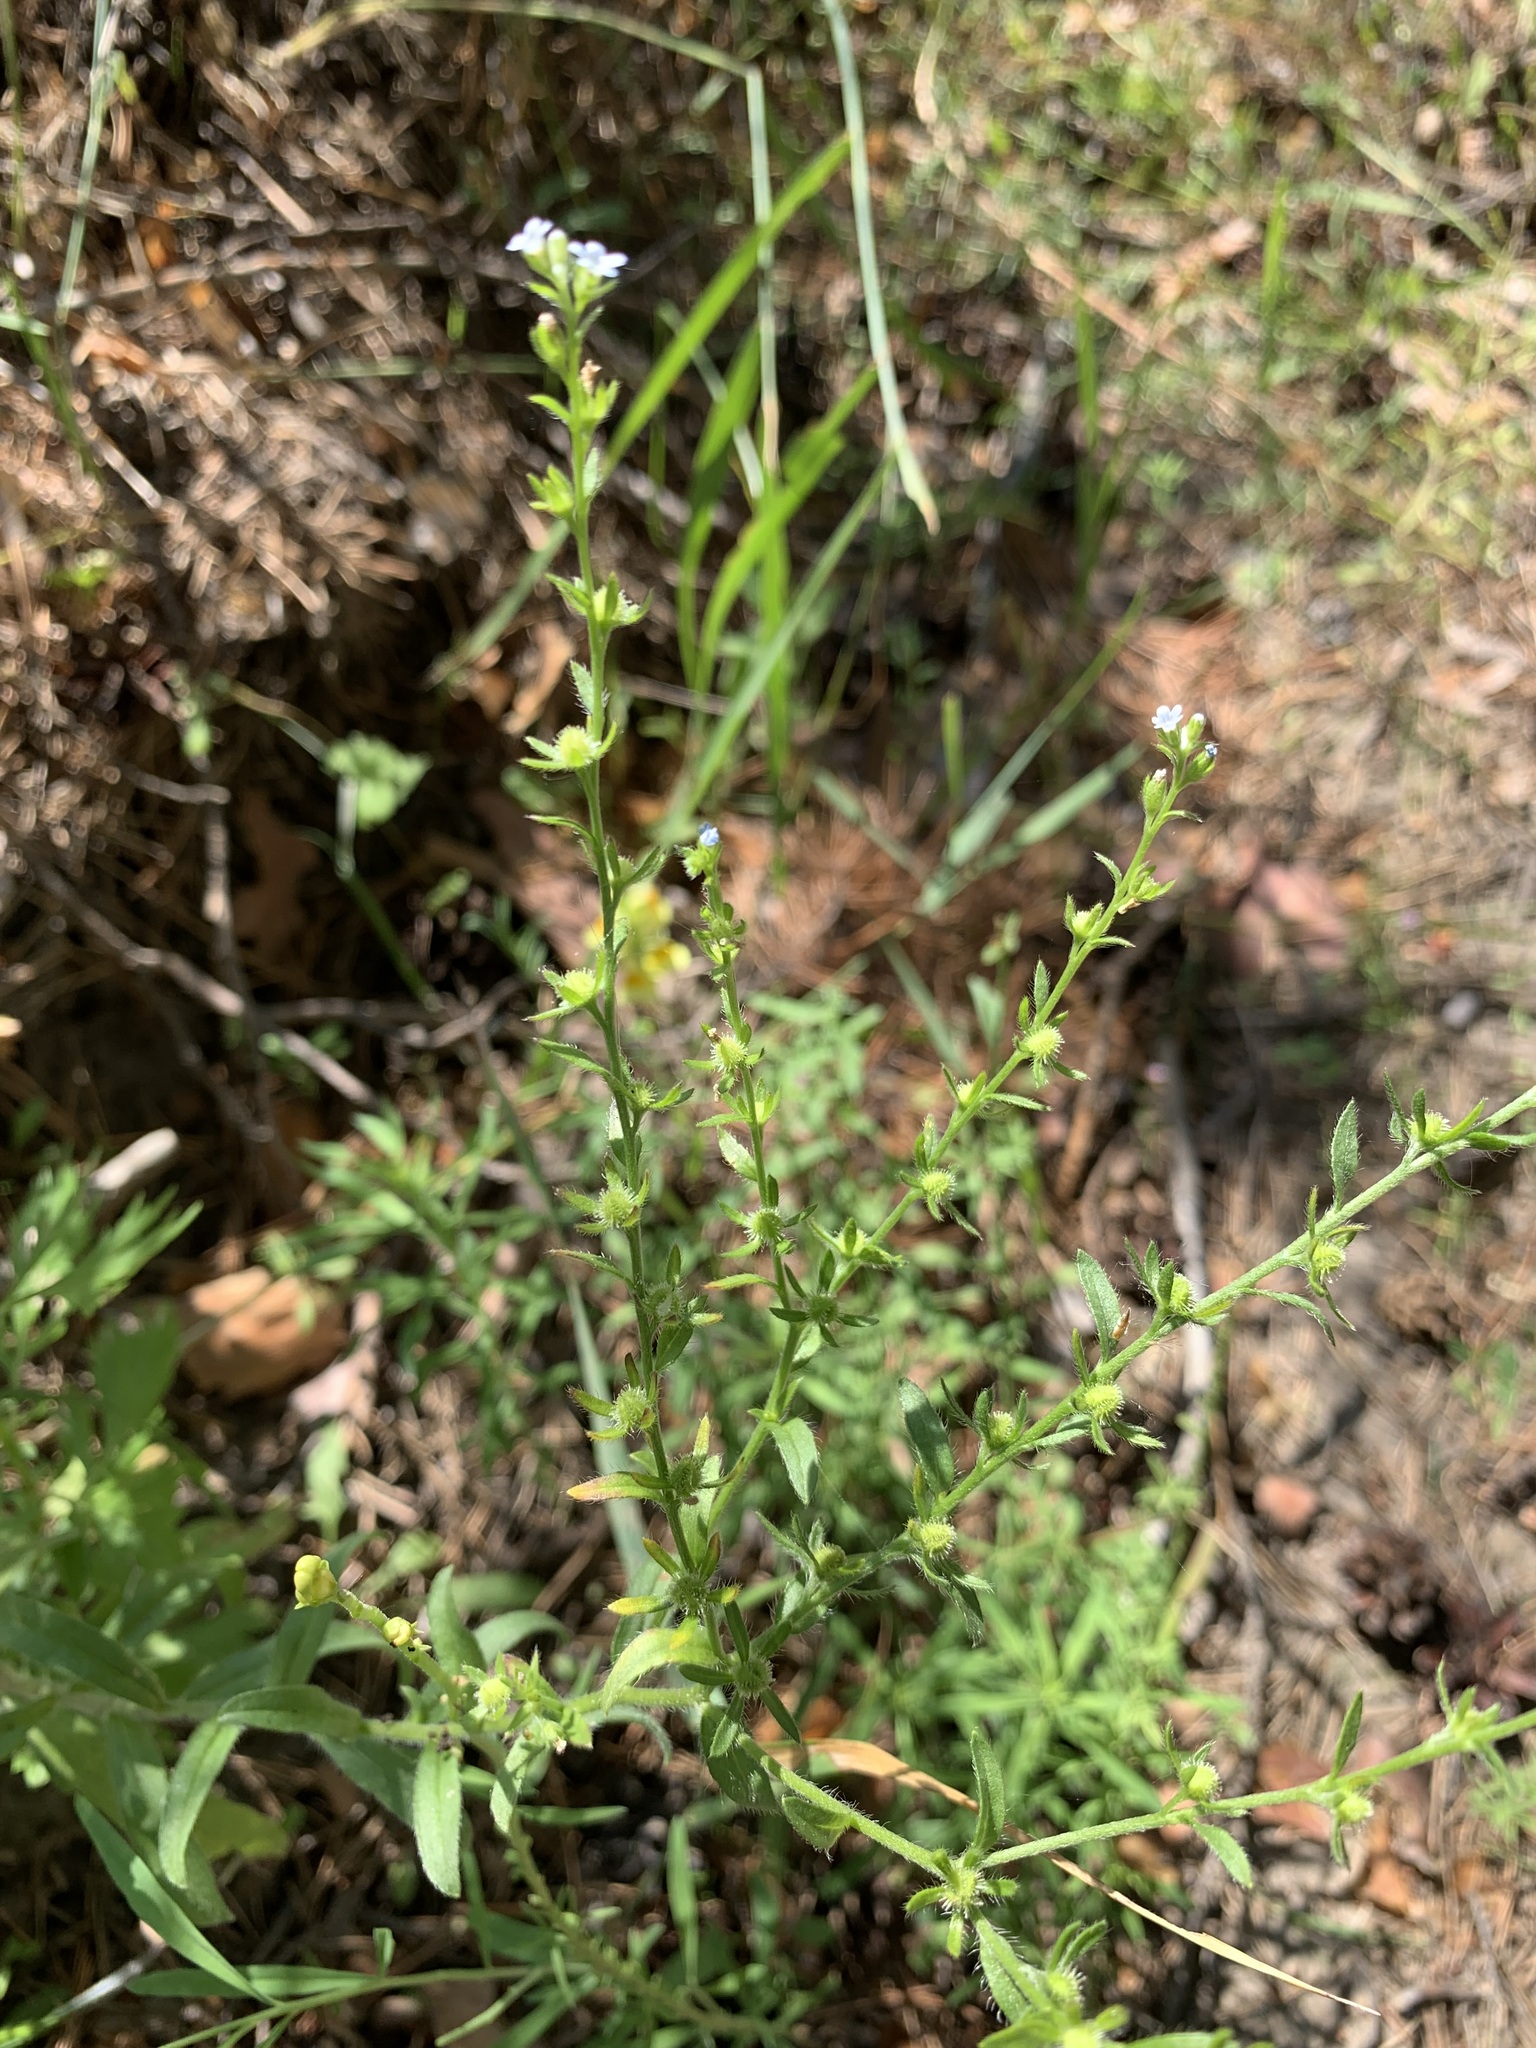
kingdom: Plantae
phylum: Tracheophyta
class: Magnoliopsida
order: Boraginales
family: Boraginaceae
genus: Lappula
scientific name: Lappula squarrosa
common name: European stickseed
